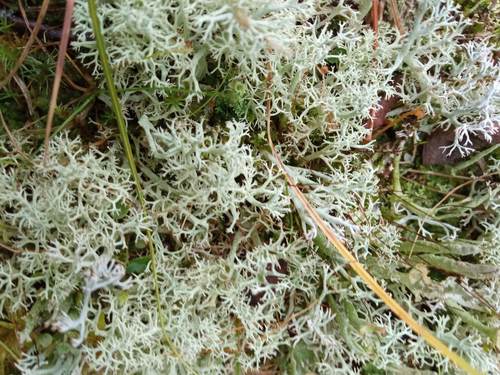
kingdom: Fungi
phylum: Ascomycota
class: Lecanoromycetes
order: Lecanorales
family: Cladoniaceae
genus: Cladonia
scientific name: Cladonia arbuscula
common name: Reindeer lichen
